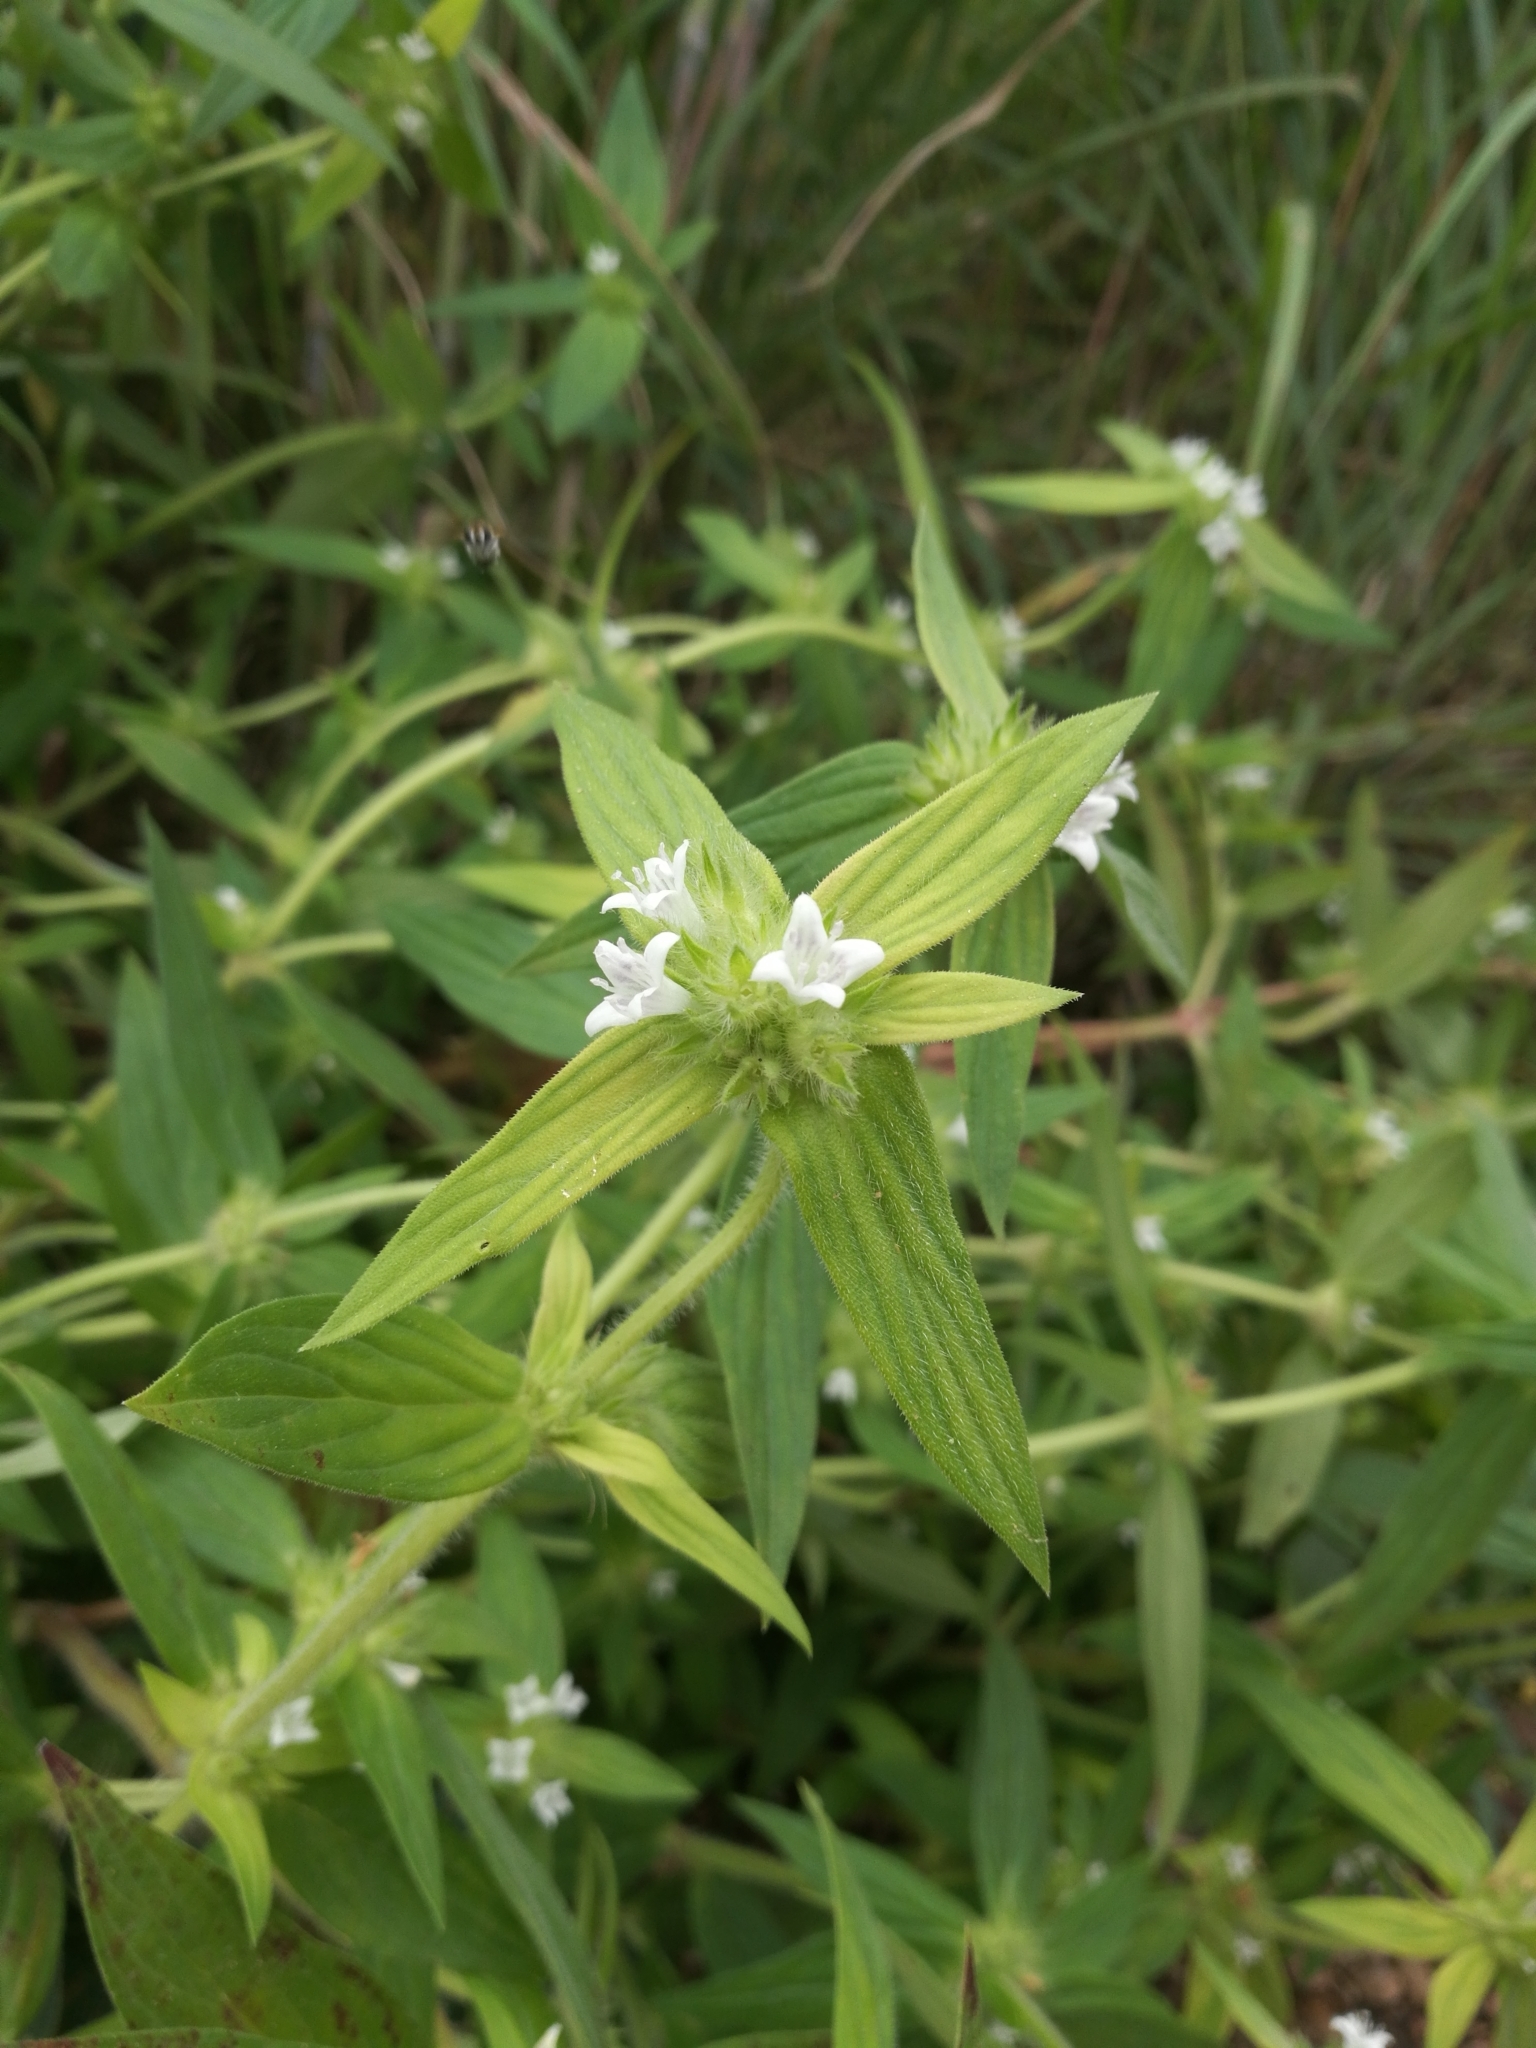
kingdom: Plantae
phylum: Tracheophyta
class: Magnoliopsida
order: Gentianales
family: Rubiaceae
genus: Spermacoce
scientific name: Spermacoce stachydea
